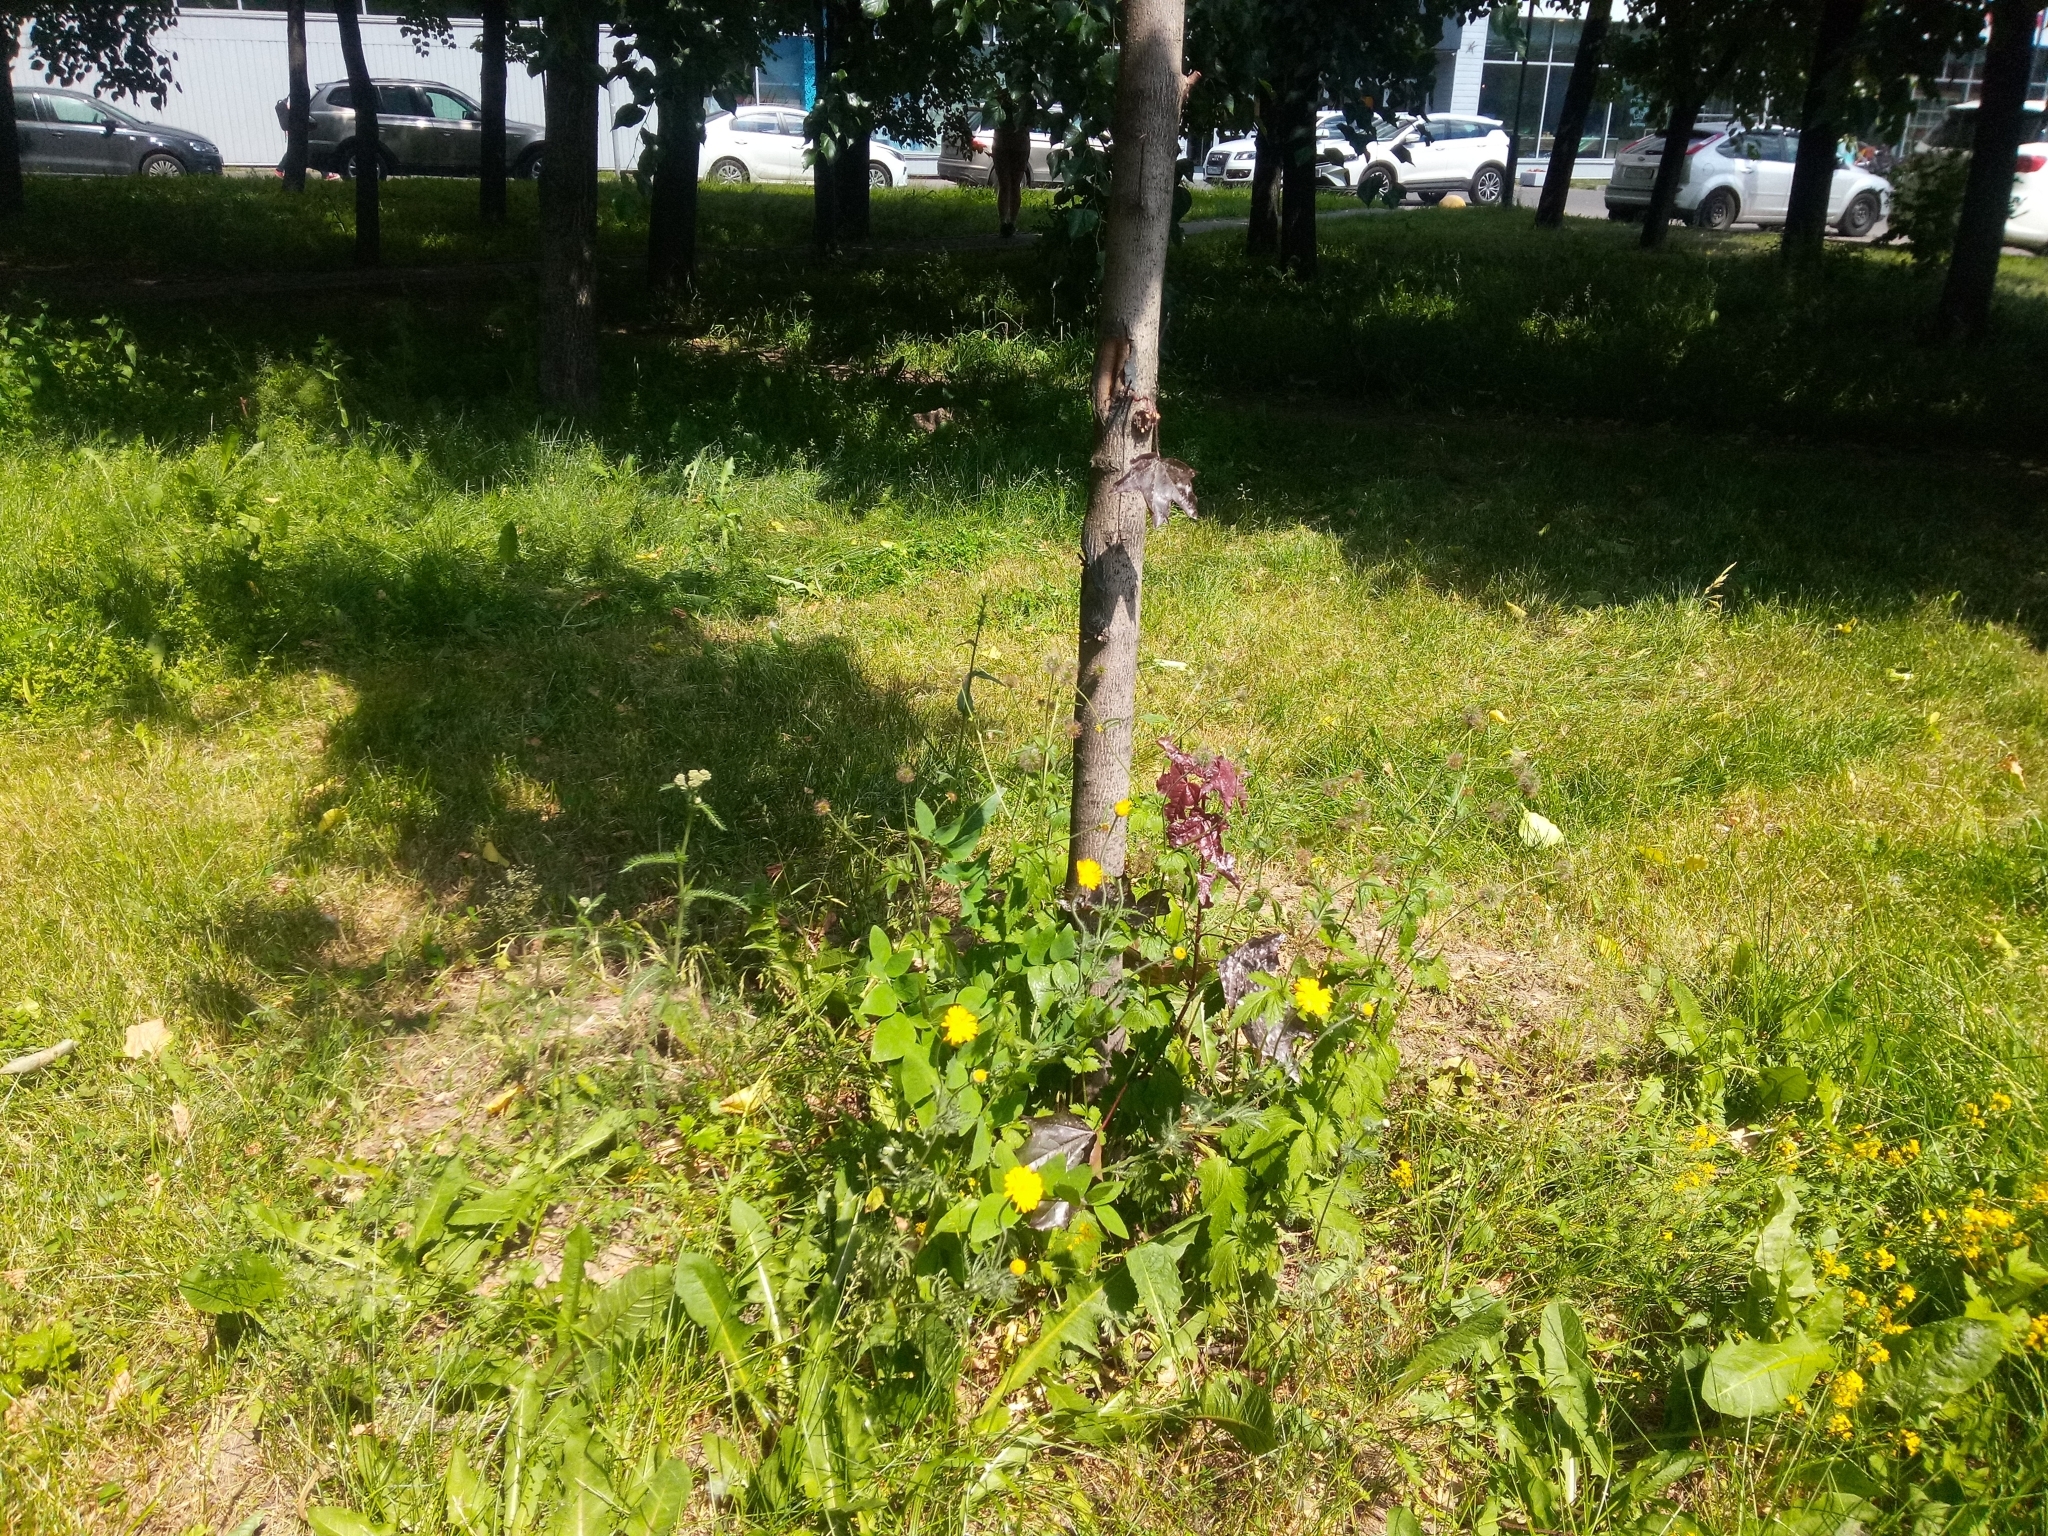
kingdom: Plantae
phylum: Tracheophyta
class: Magnoliopsida
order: Asterales
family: Asteraceae
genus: Cota
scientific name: Cota tinctoria
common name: Golden chamomile
